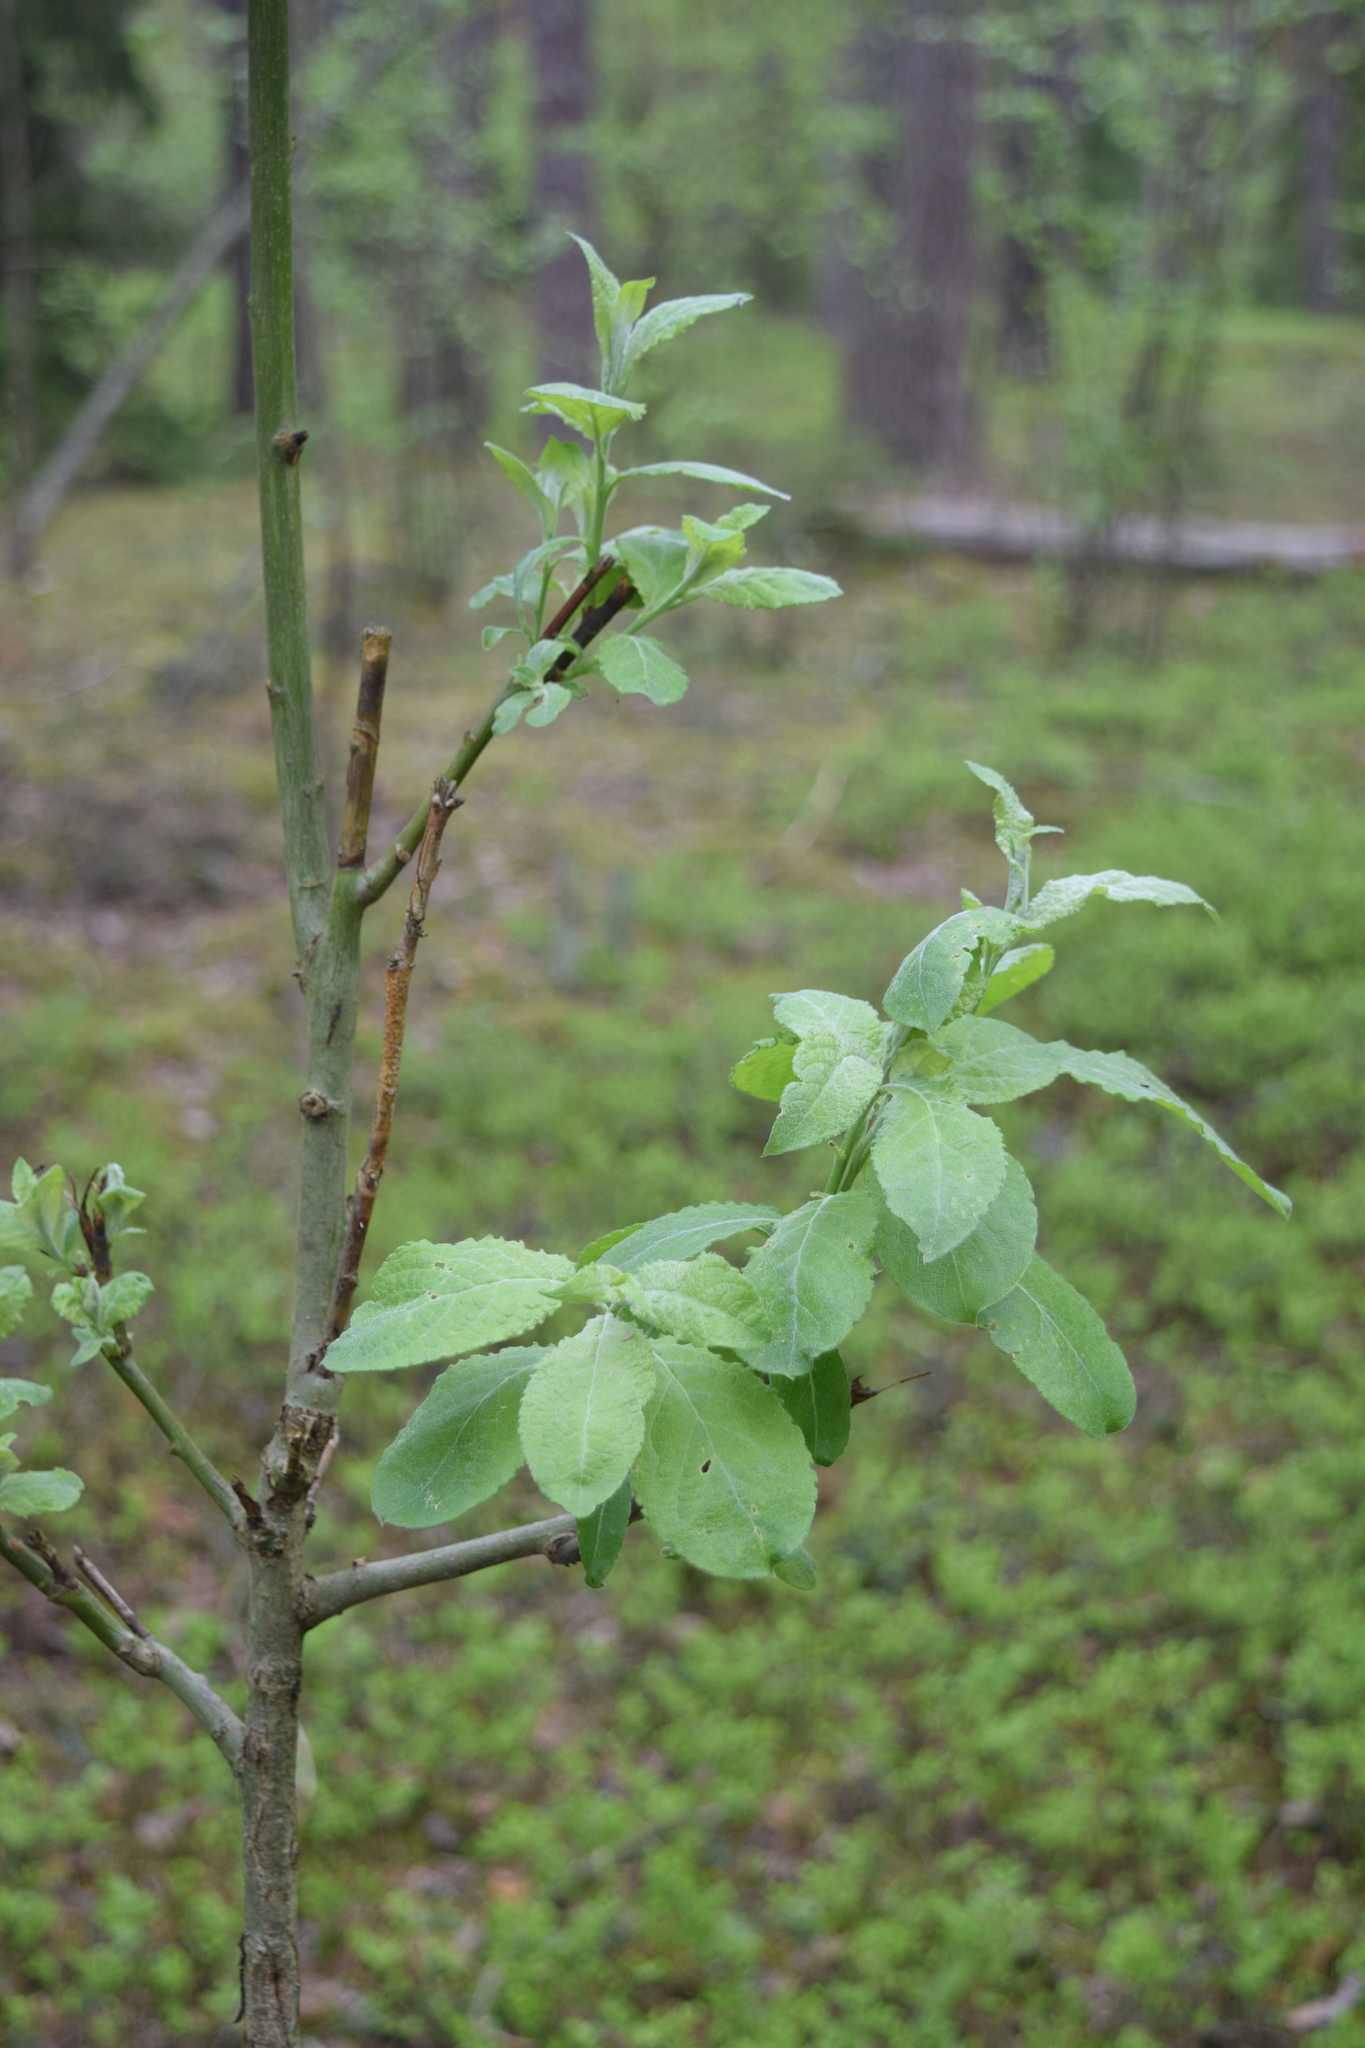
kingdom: Plantae
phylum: Tracheophyta
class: Magnoliopsida
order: Malpighiales
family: Salicaceae
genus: Salix
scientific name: Salix caprea
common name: Goat willow
